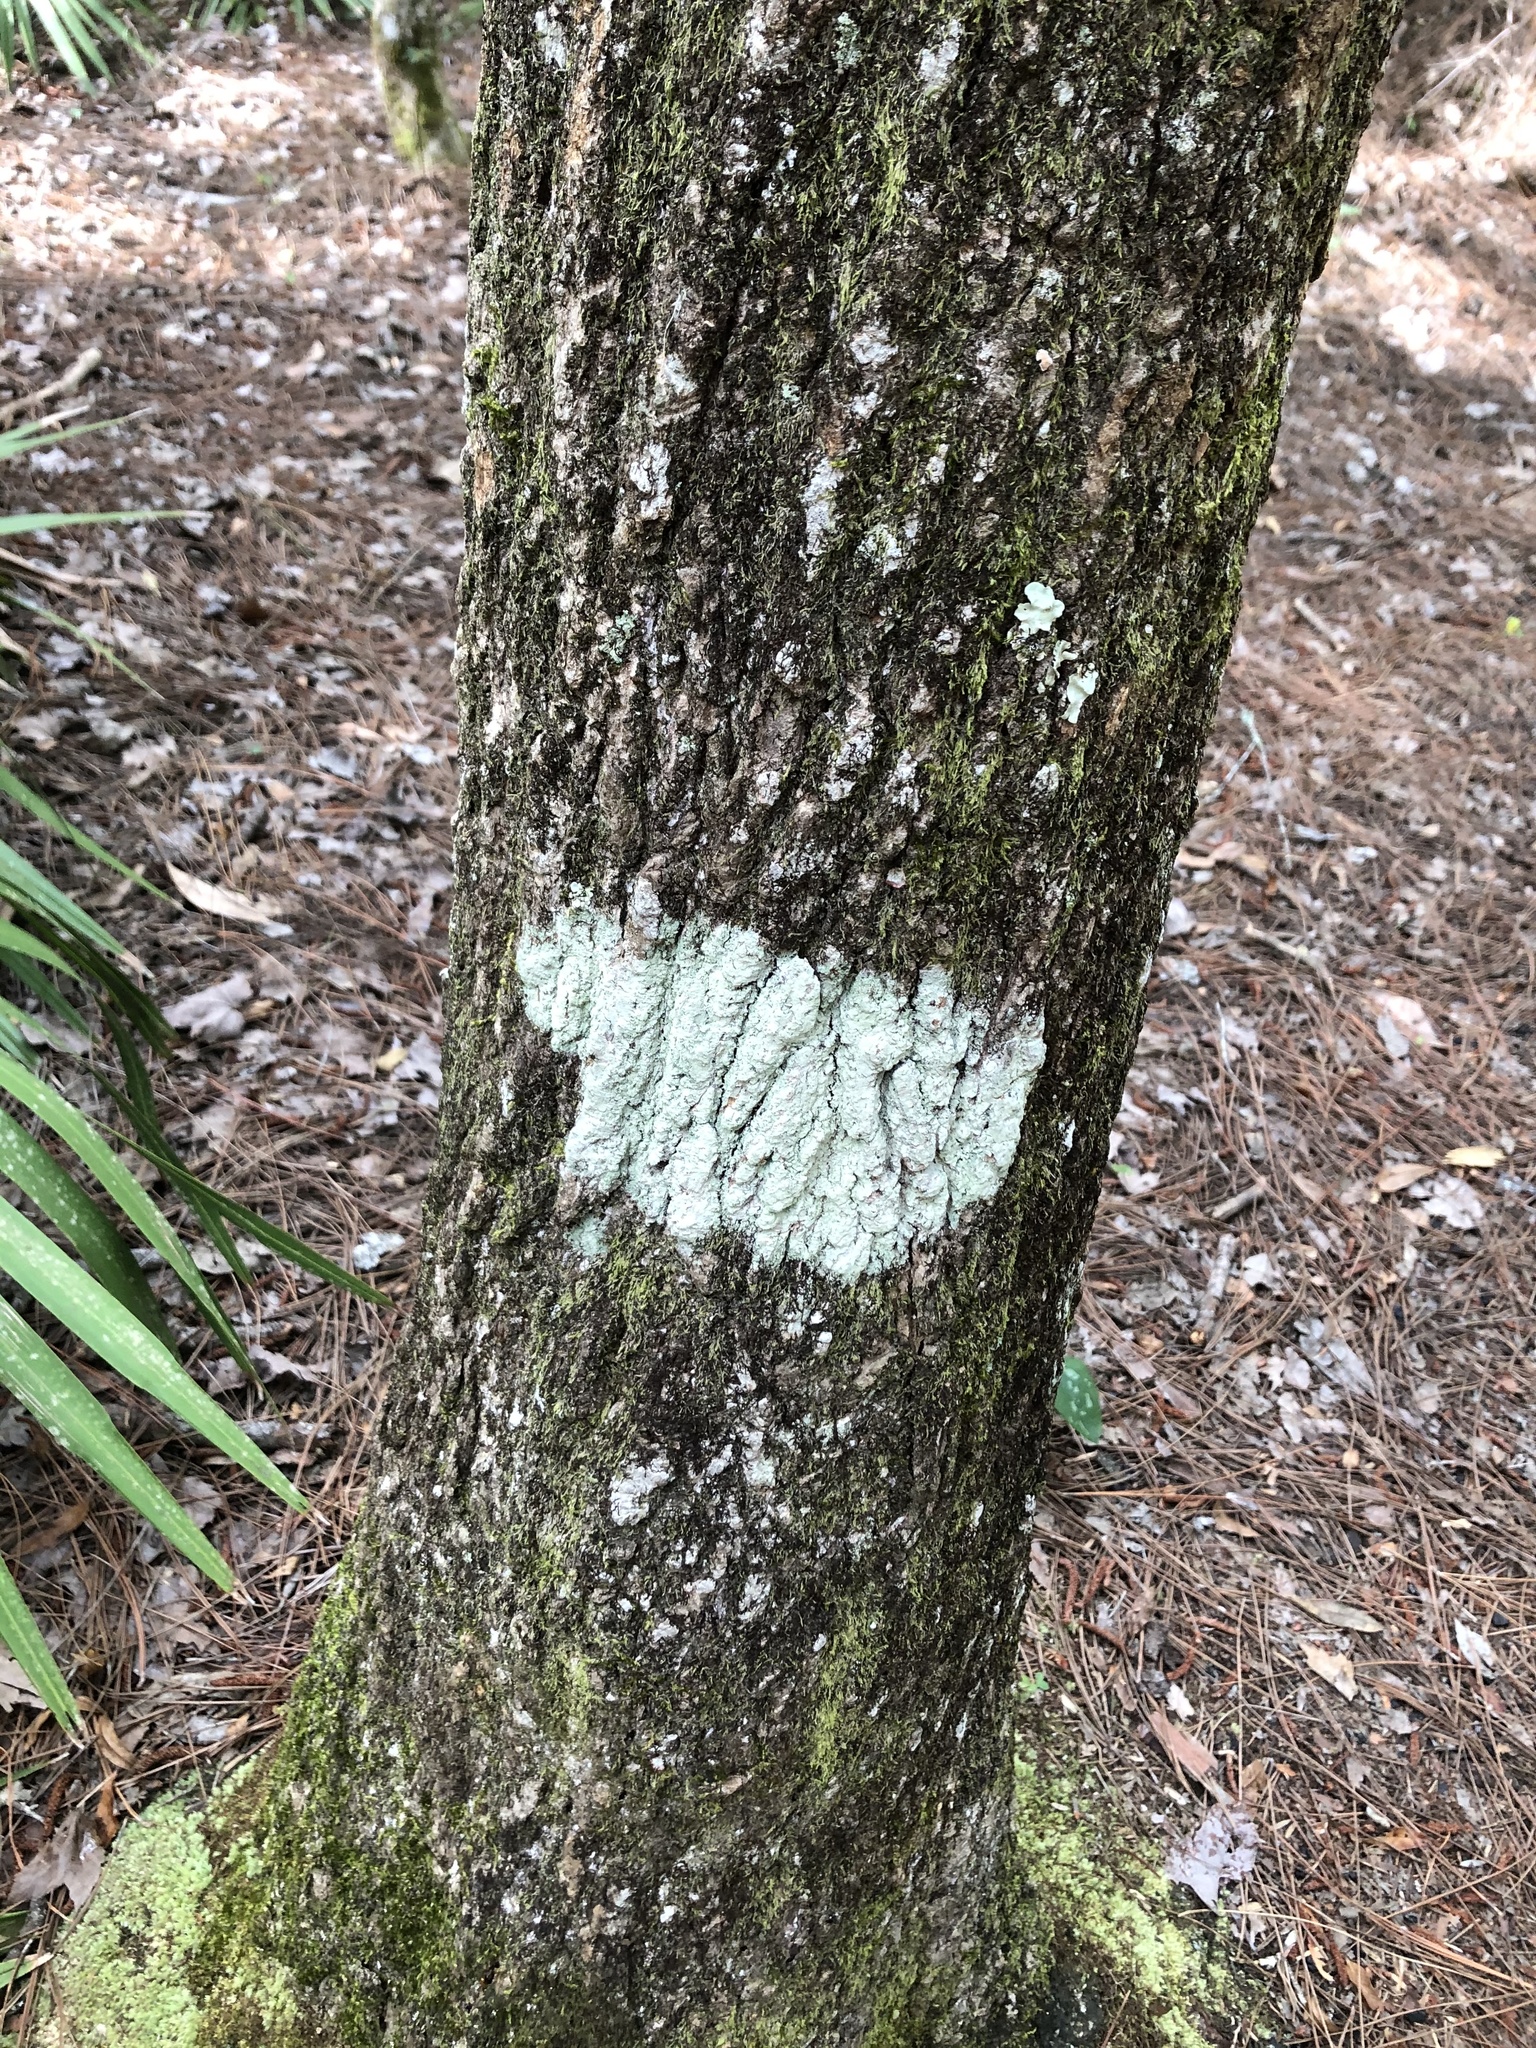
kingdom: Fungi
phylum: Ascomycota
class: Lecanoromycetes
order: Ostropales
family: Phlyctidaceae
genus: Phlyctis
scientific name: Phlyctis argena
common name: Whitewash lichen
